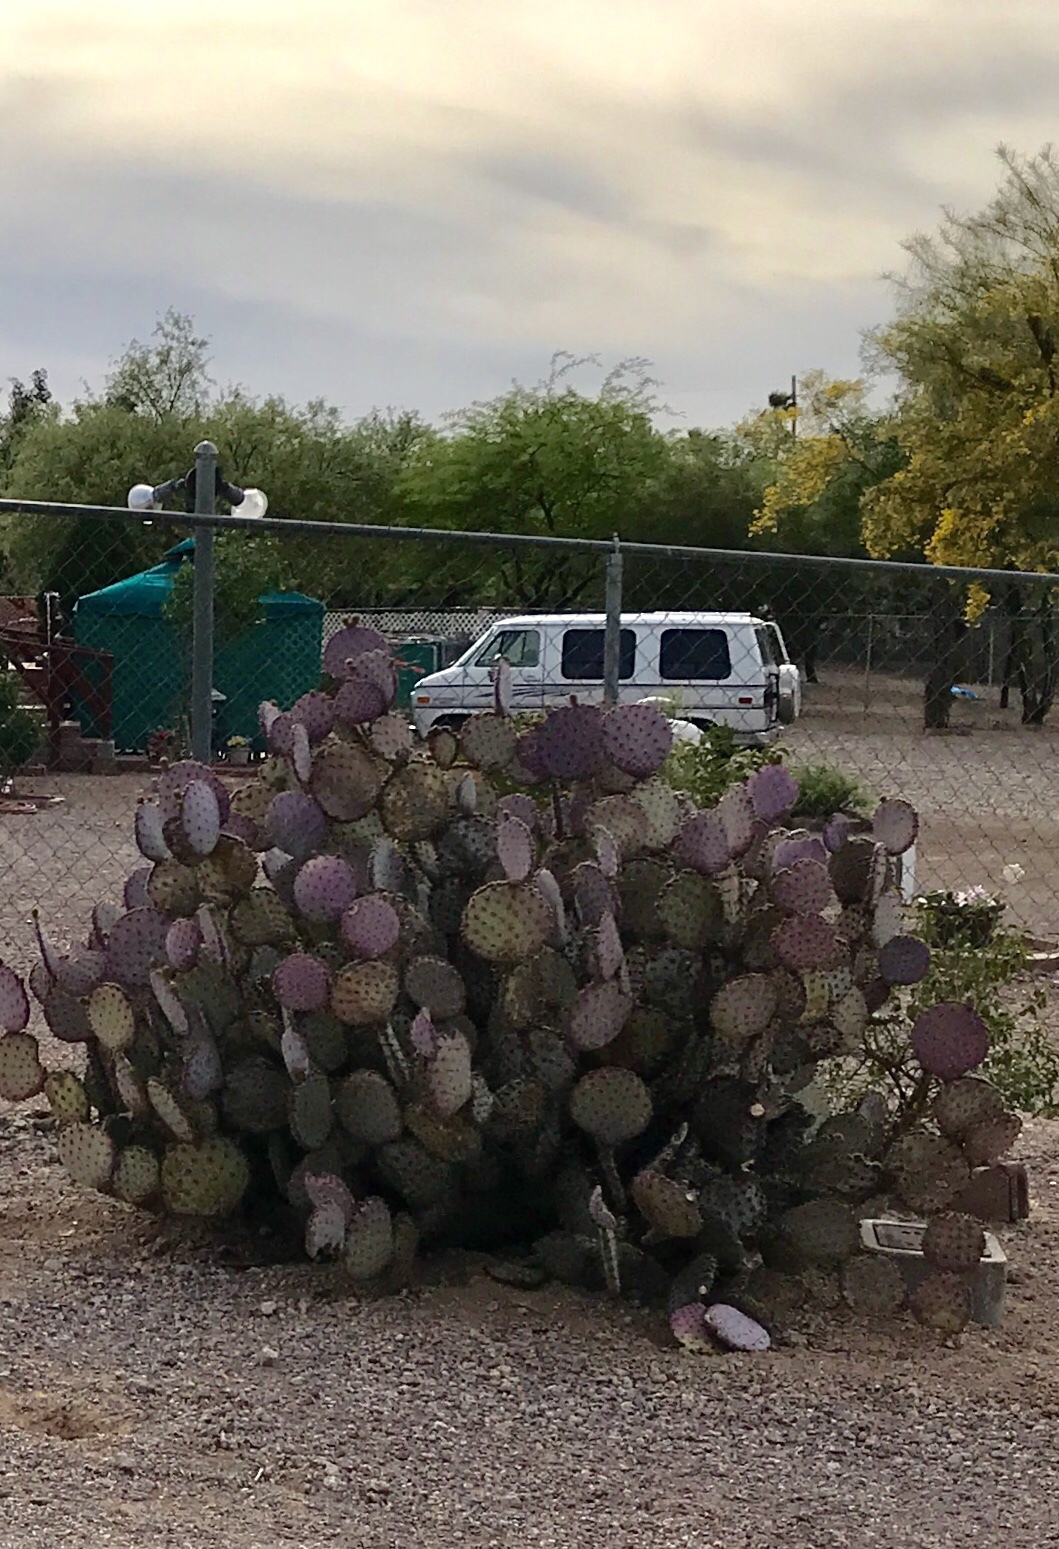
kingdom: Plantae
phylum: Tracheophyta
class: Magnoliopsida
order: Caryophyllales
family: Cactaceae
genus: Opuntia
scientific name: Opuntia gosseliniana
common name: Violet prickly-pear
